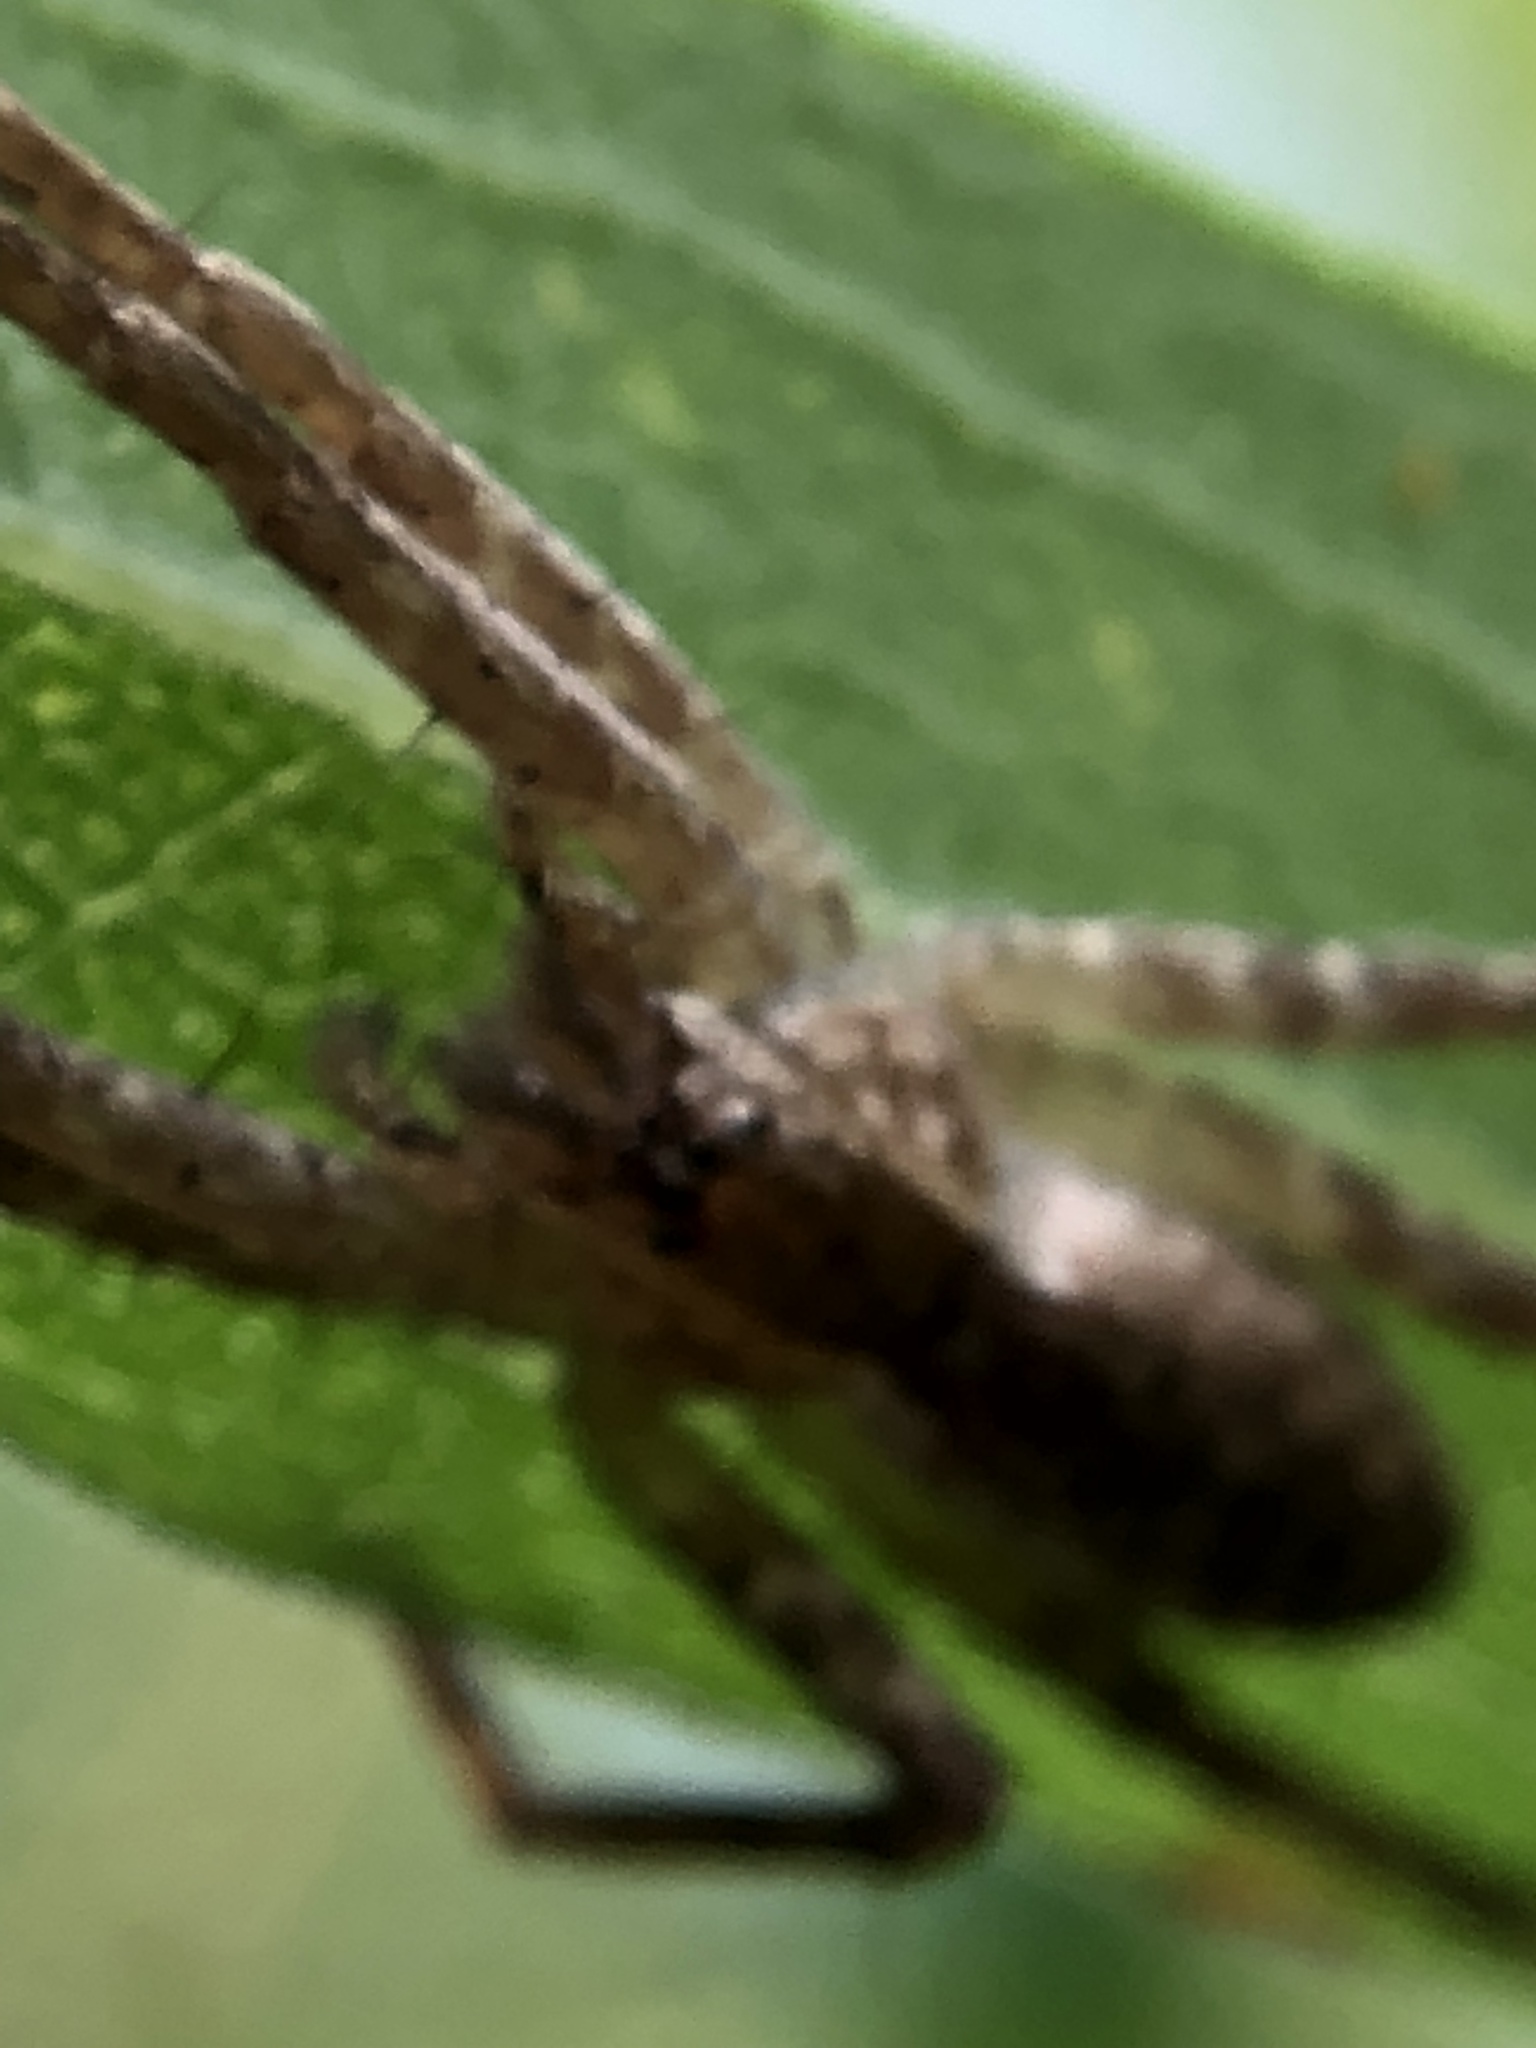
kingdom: Animalia
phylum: Arthropoda
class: Arachnida
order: Araneae
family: Pisauridae
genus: Pisaurina
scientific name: Pisaurina mira
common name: American nursery web spider
